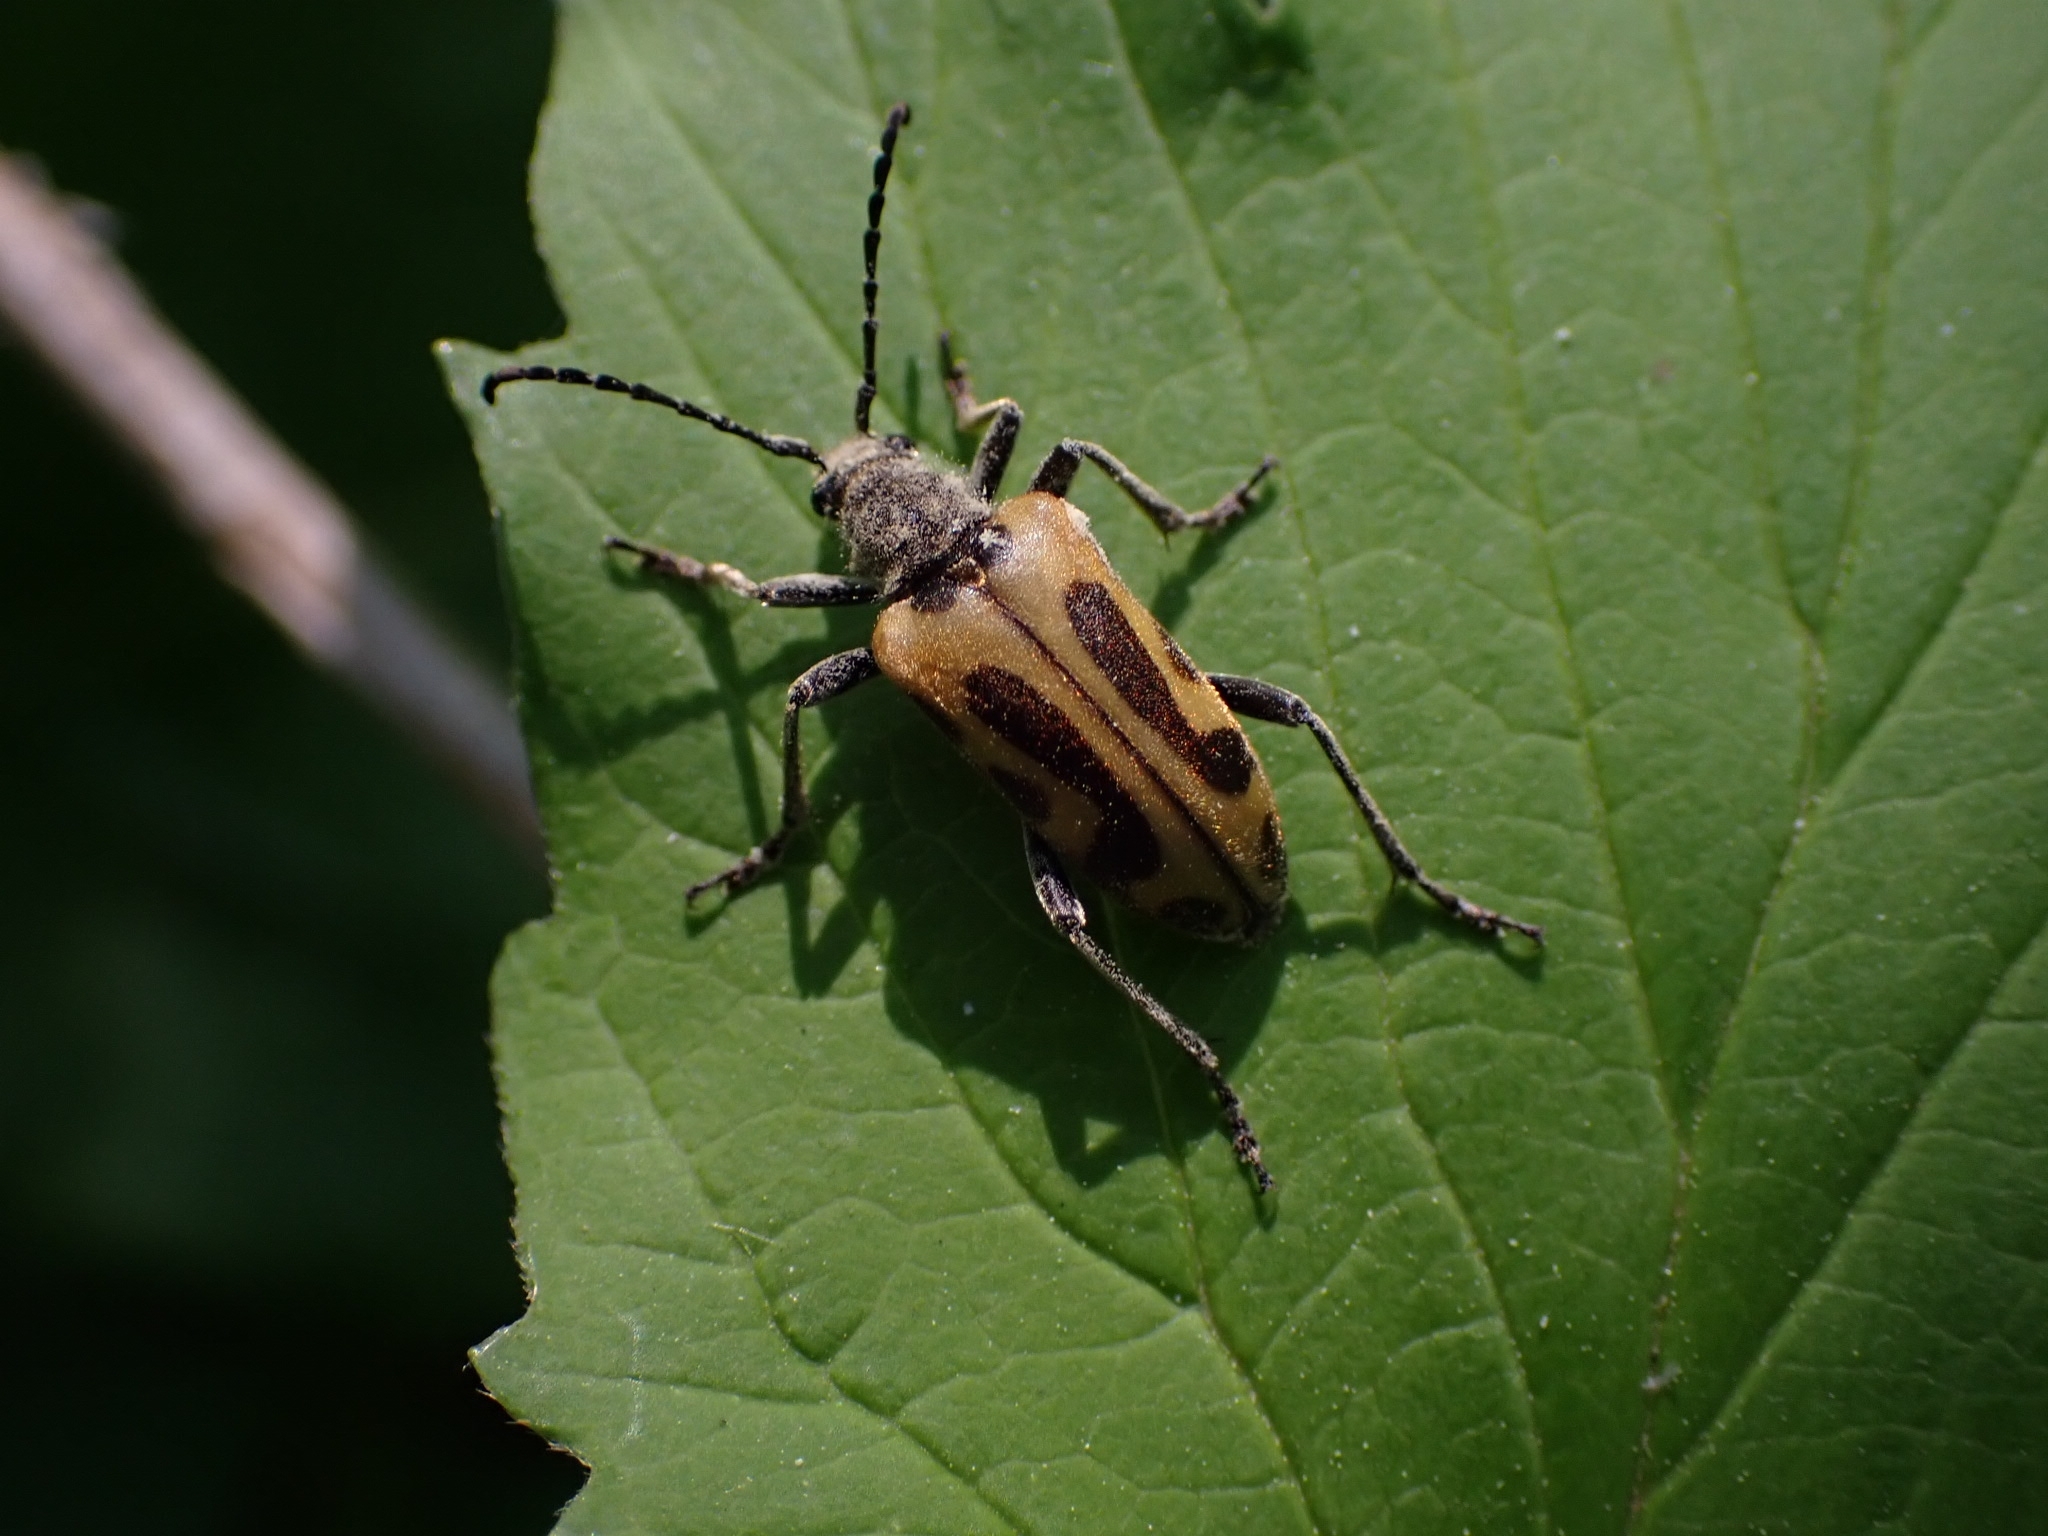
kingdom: Animalia
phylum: Arthropoda
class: Insecta
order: Coleoptera
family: Cerambycidae
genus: Brachyta
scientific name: Brachyta interrogationis
